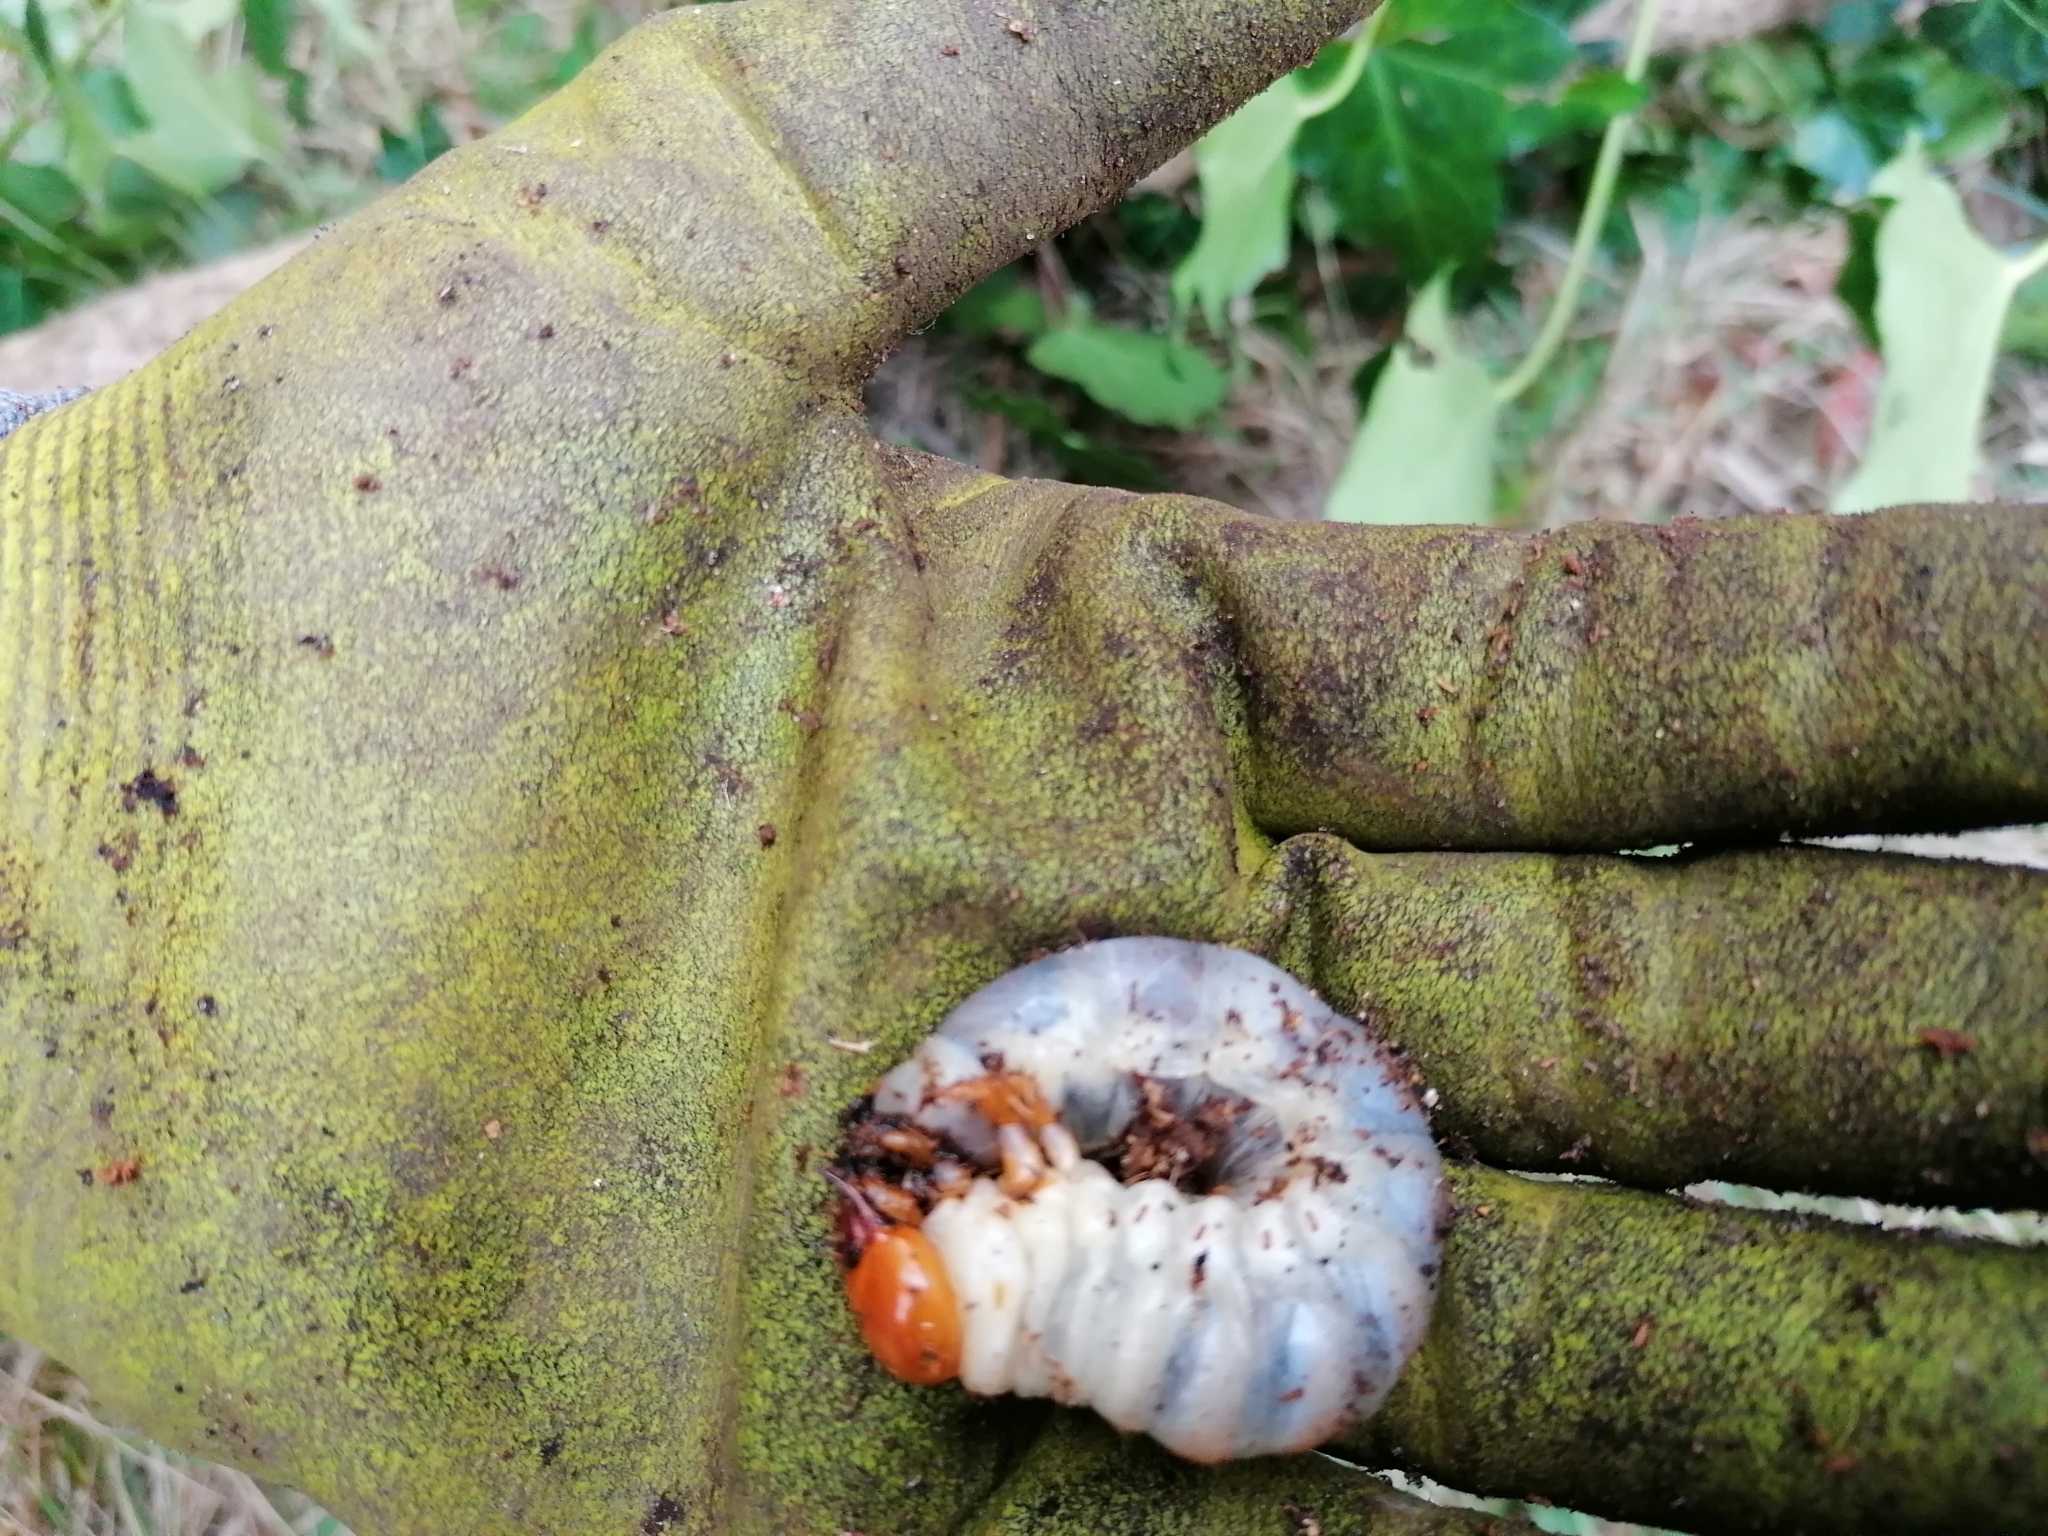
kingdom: Animalia
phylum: Arthropoda
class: Insecta
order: Coleoptera
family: Lucanidae
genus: Lucanus
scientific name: Lucanus cervus
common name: Stag beetle
